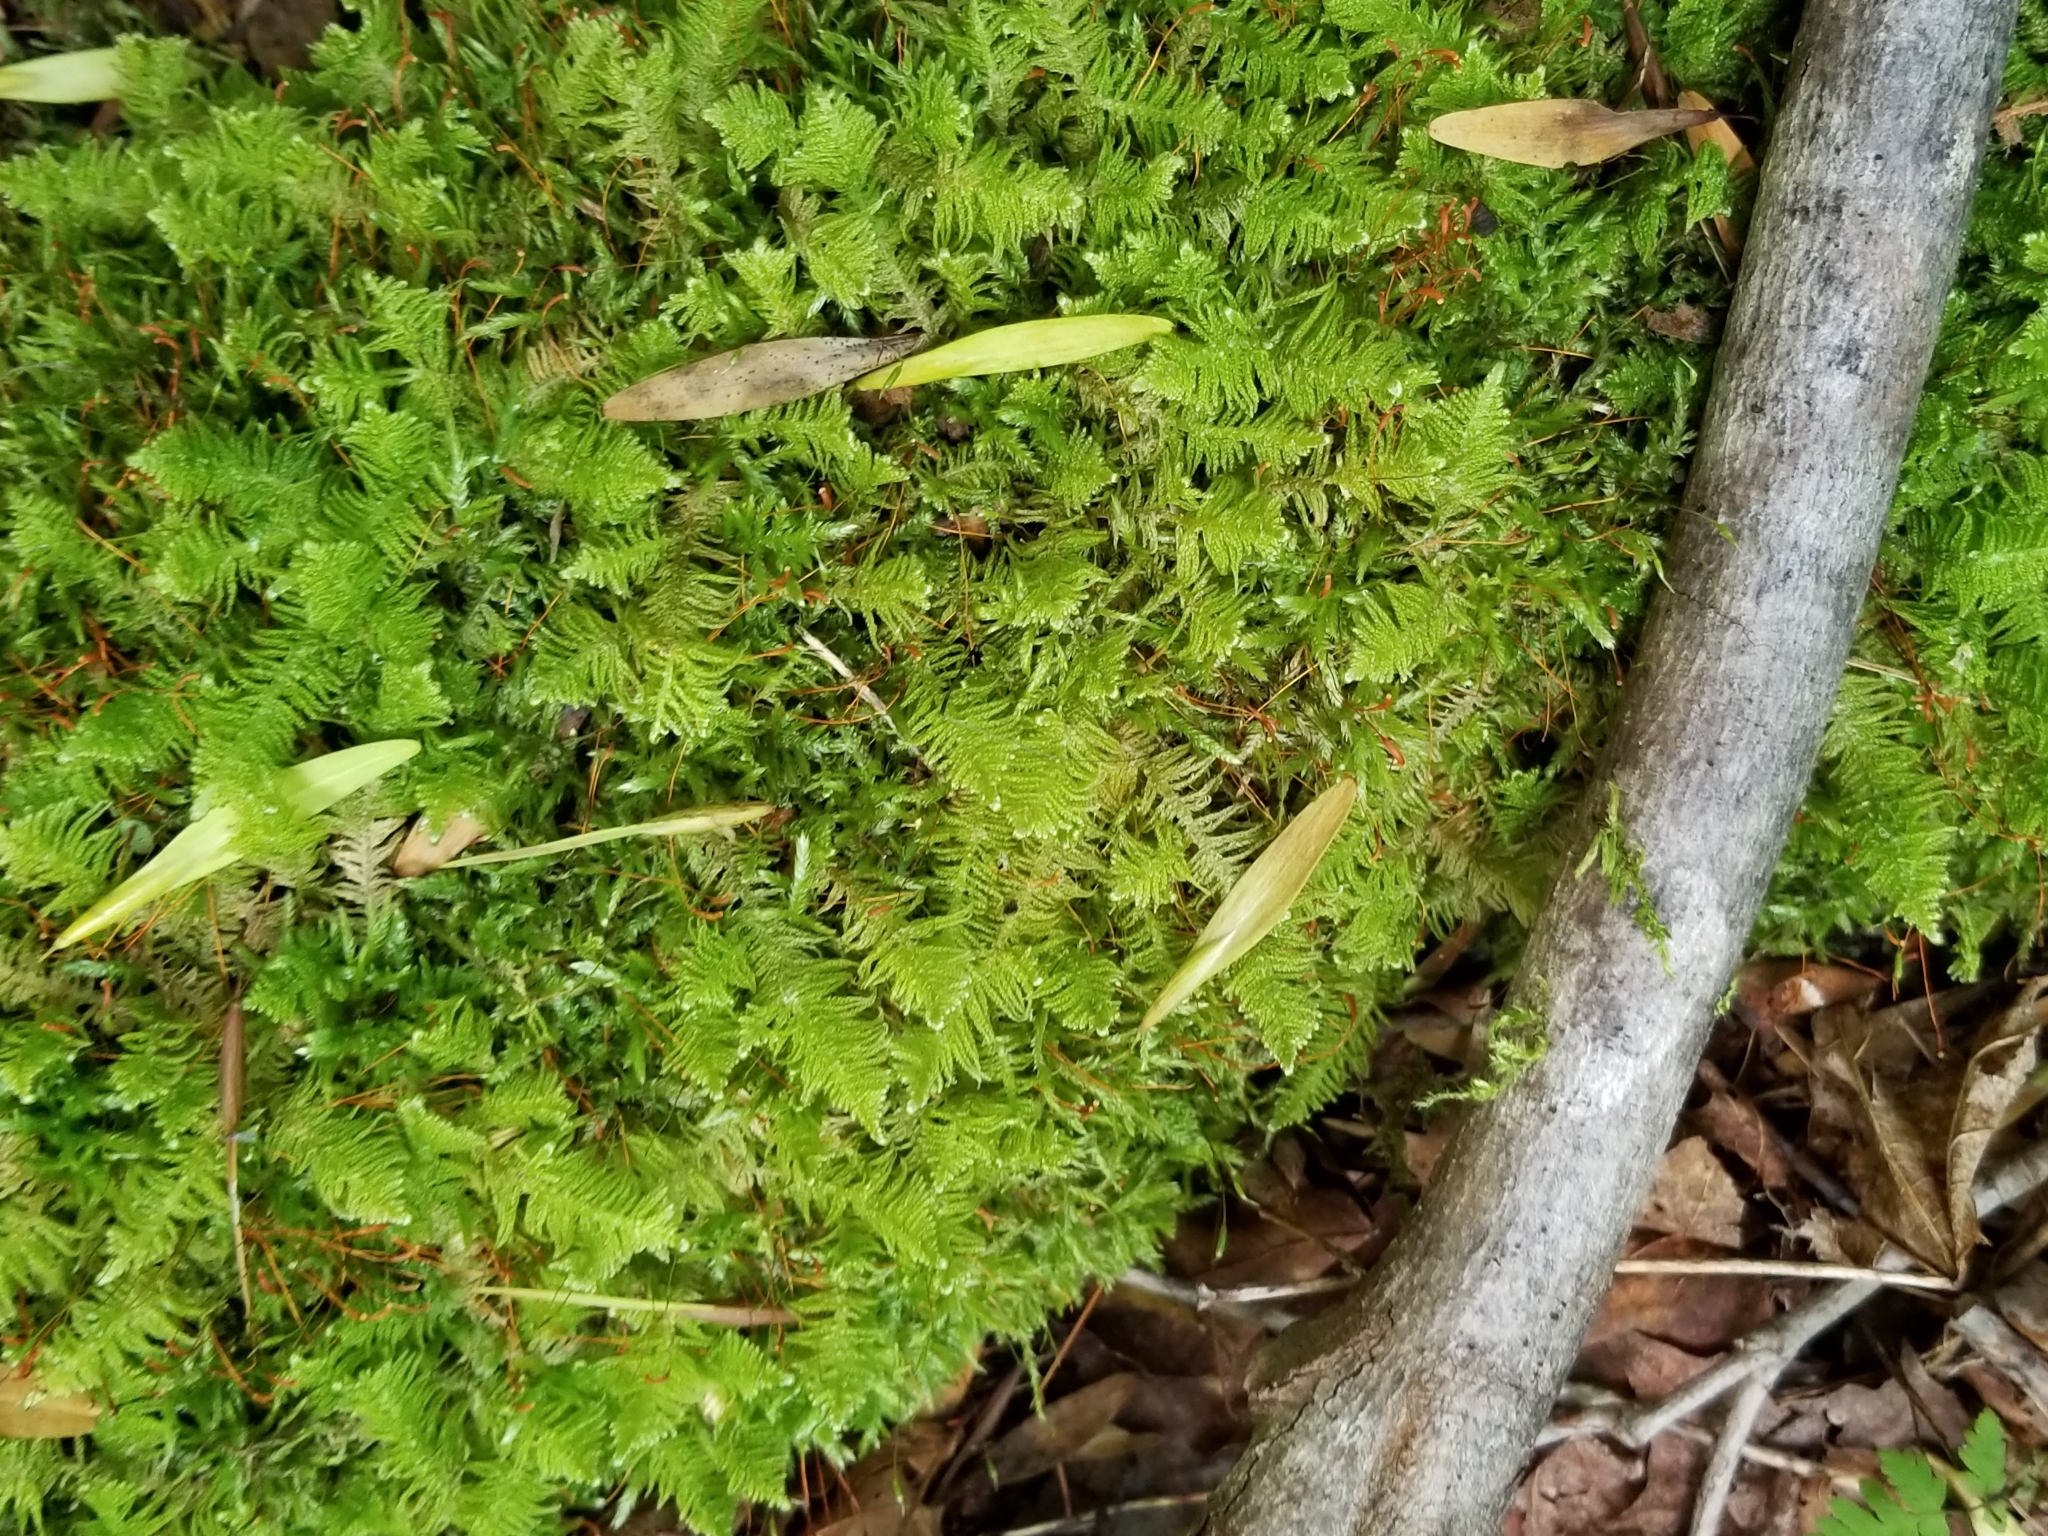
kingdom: Plantae
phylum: Bryophyta
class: Bryopsida
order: Hypnales
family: Pylaisiaceae
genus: Ptilium
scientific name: Ptilium crista-castrensis
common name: Knight's plume moss
